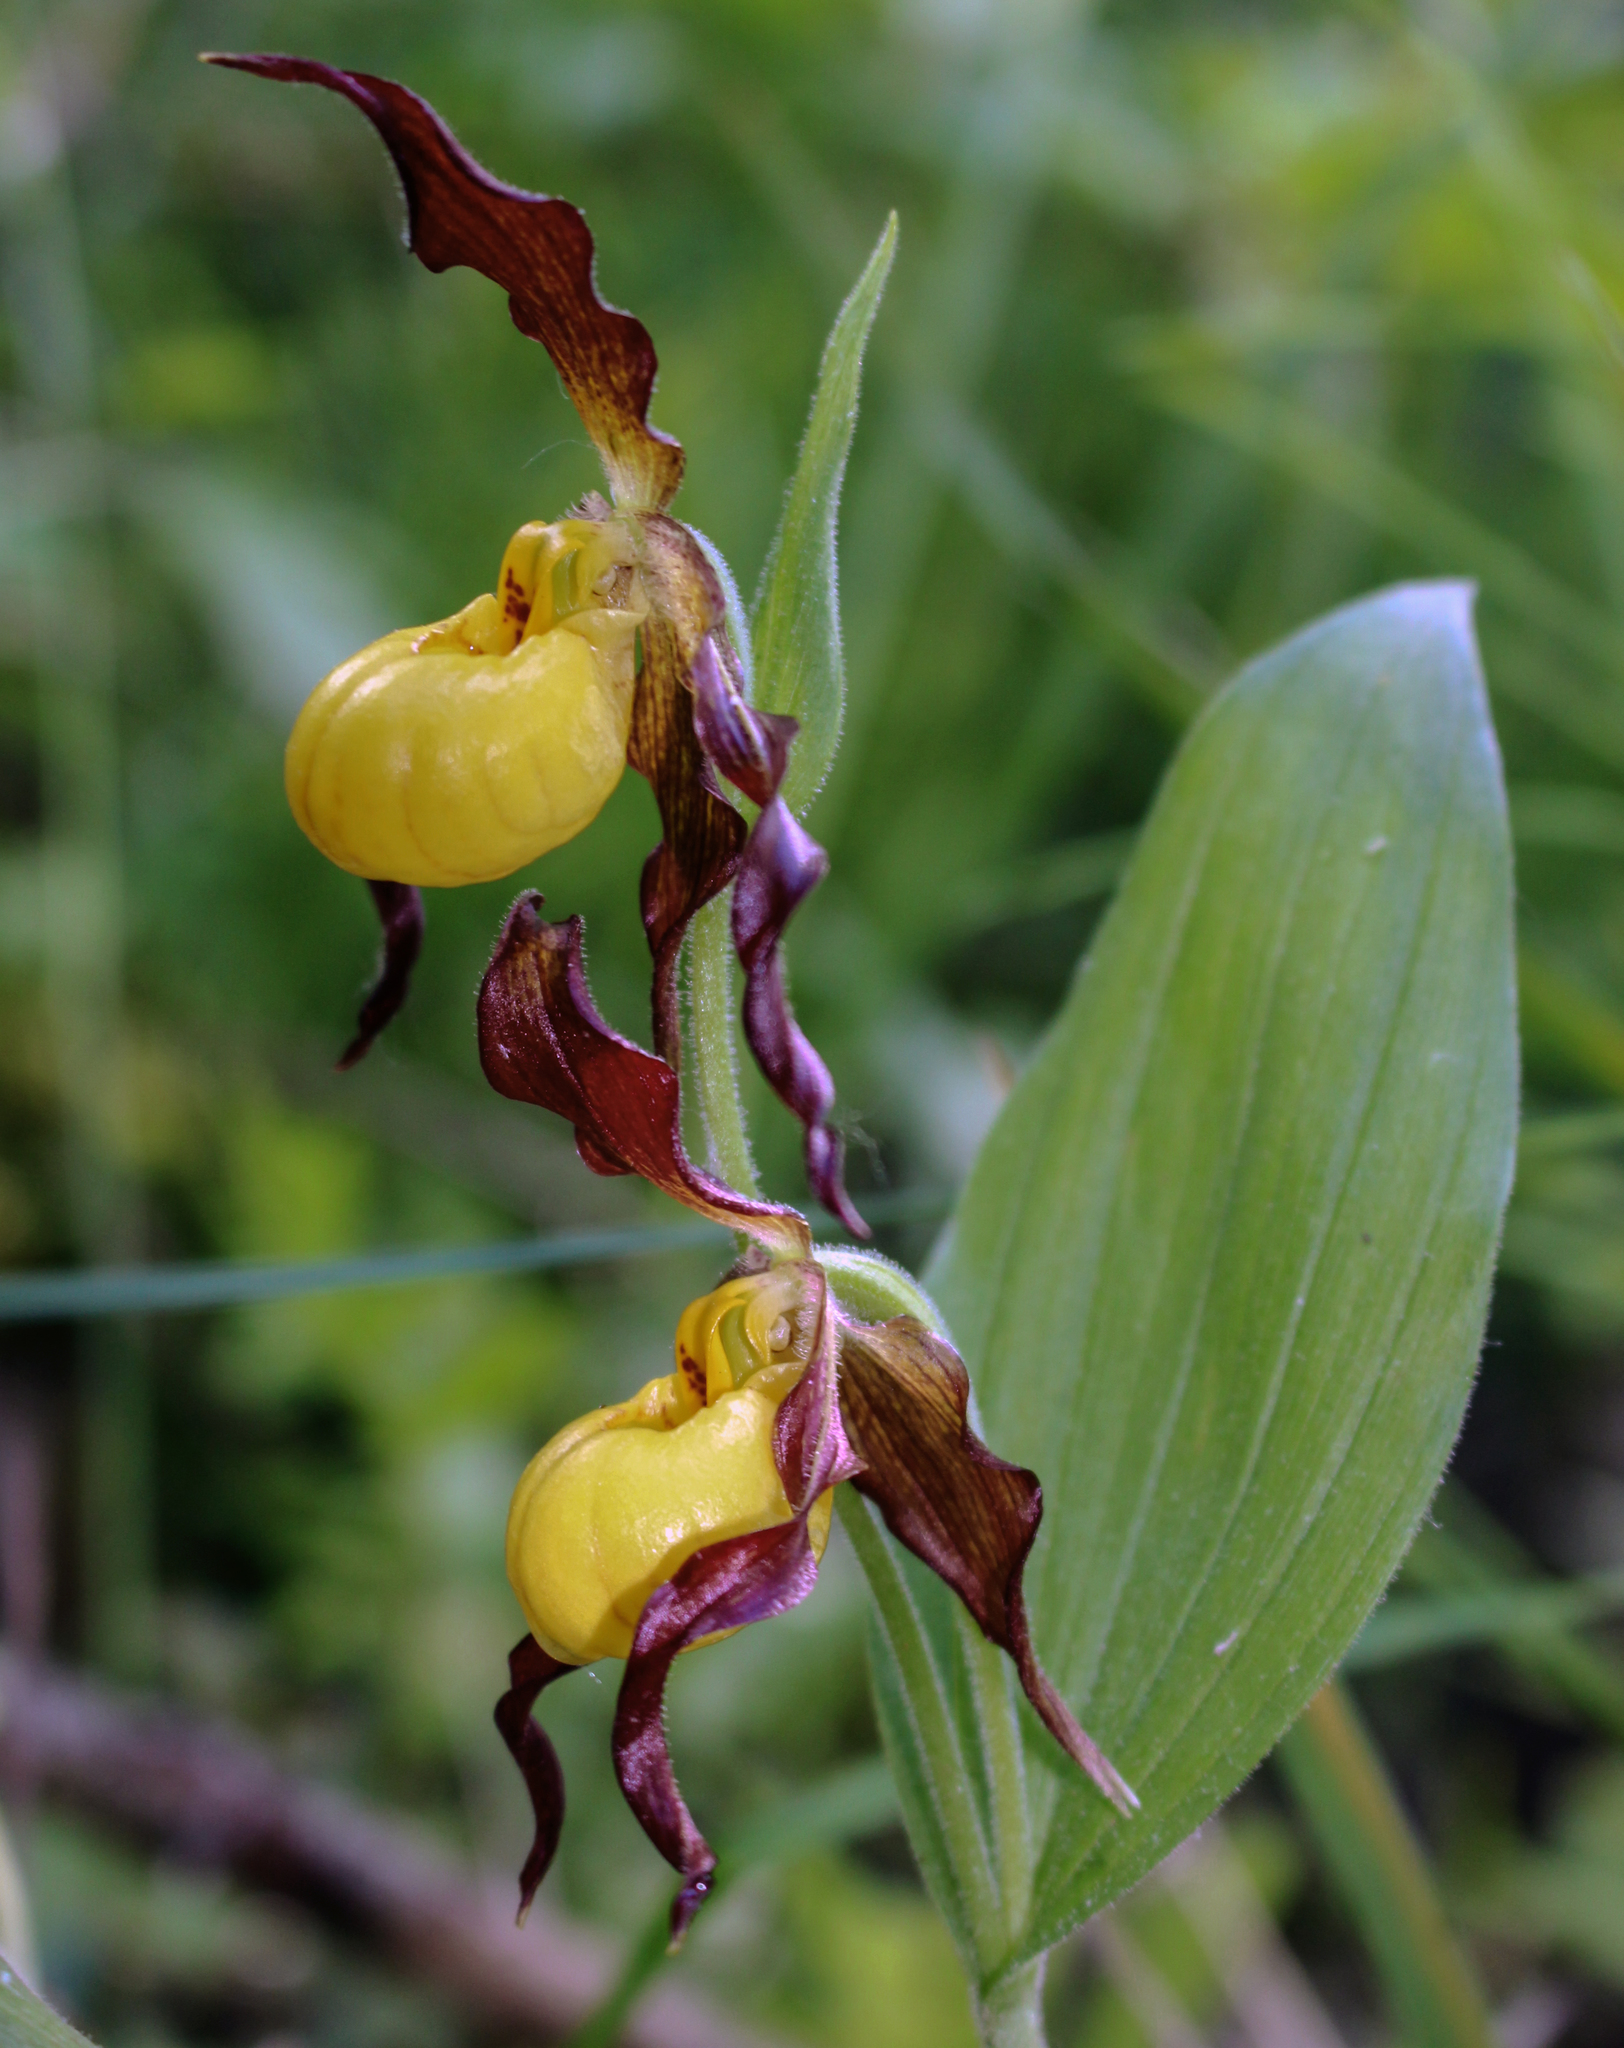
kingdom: Plantae
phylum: Tracheophyta
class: Liliopsida
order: Asparagales
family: Orchidaceae
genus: Cypripedium
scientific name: Cypripedium parviflorum
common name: American yellow lady's-slipper
